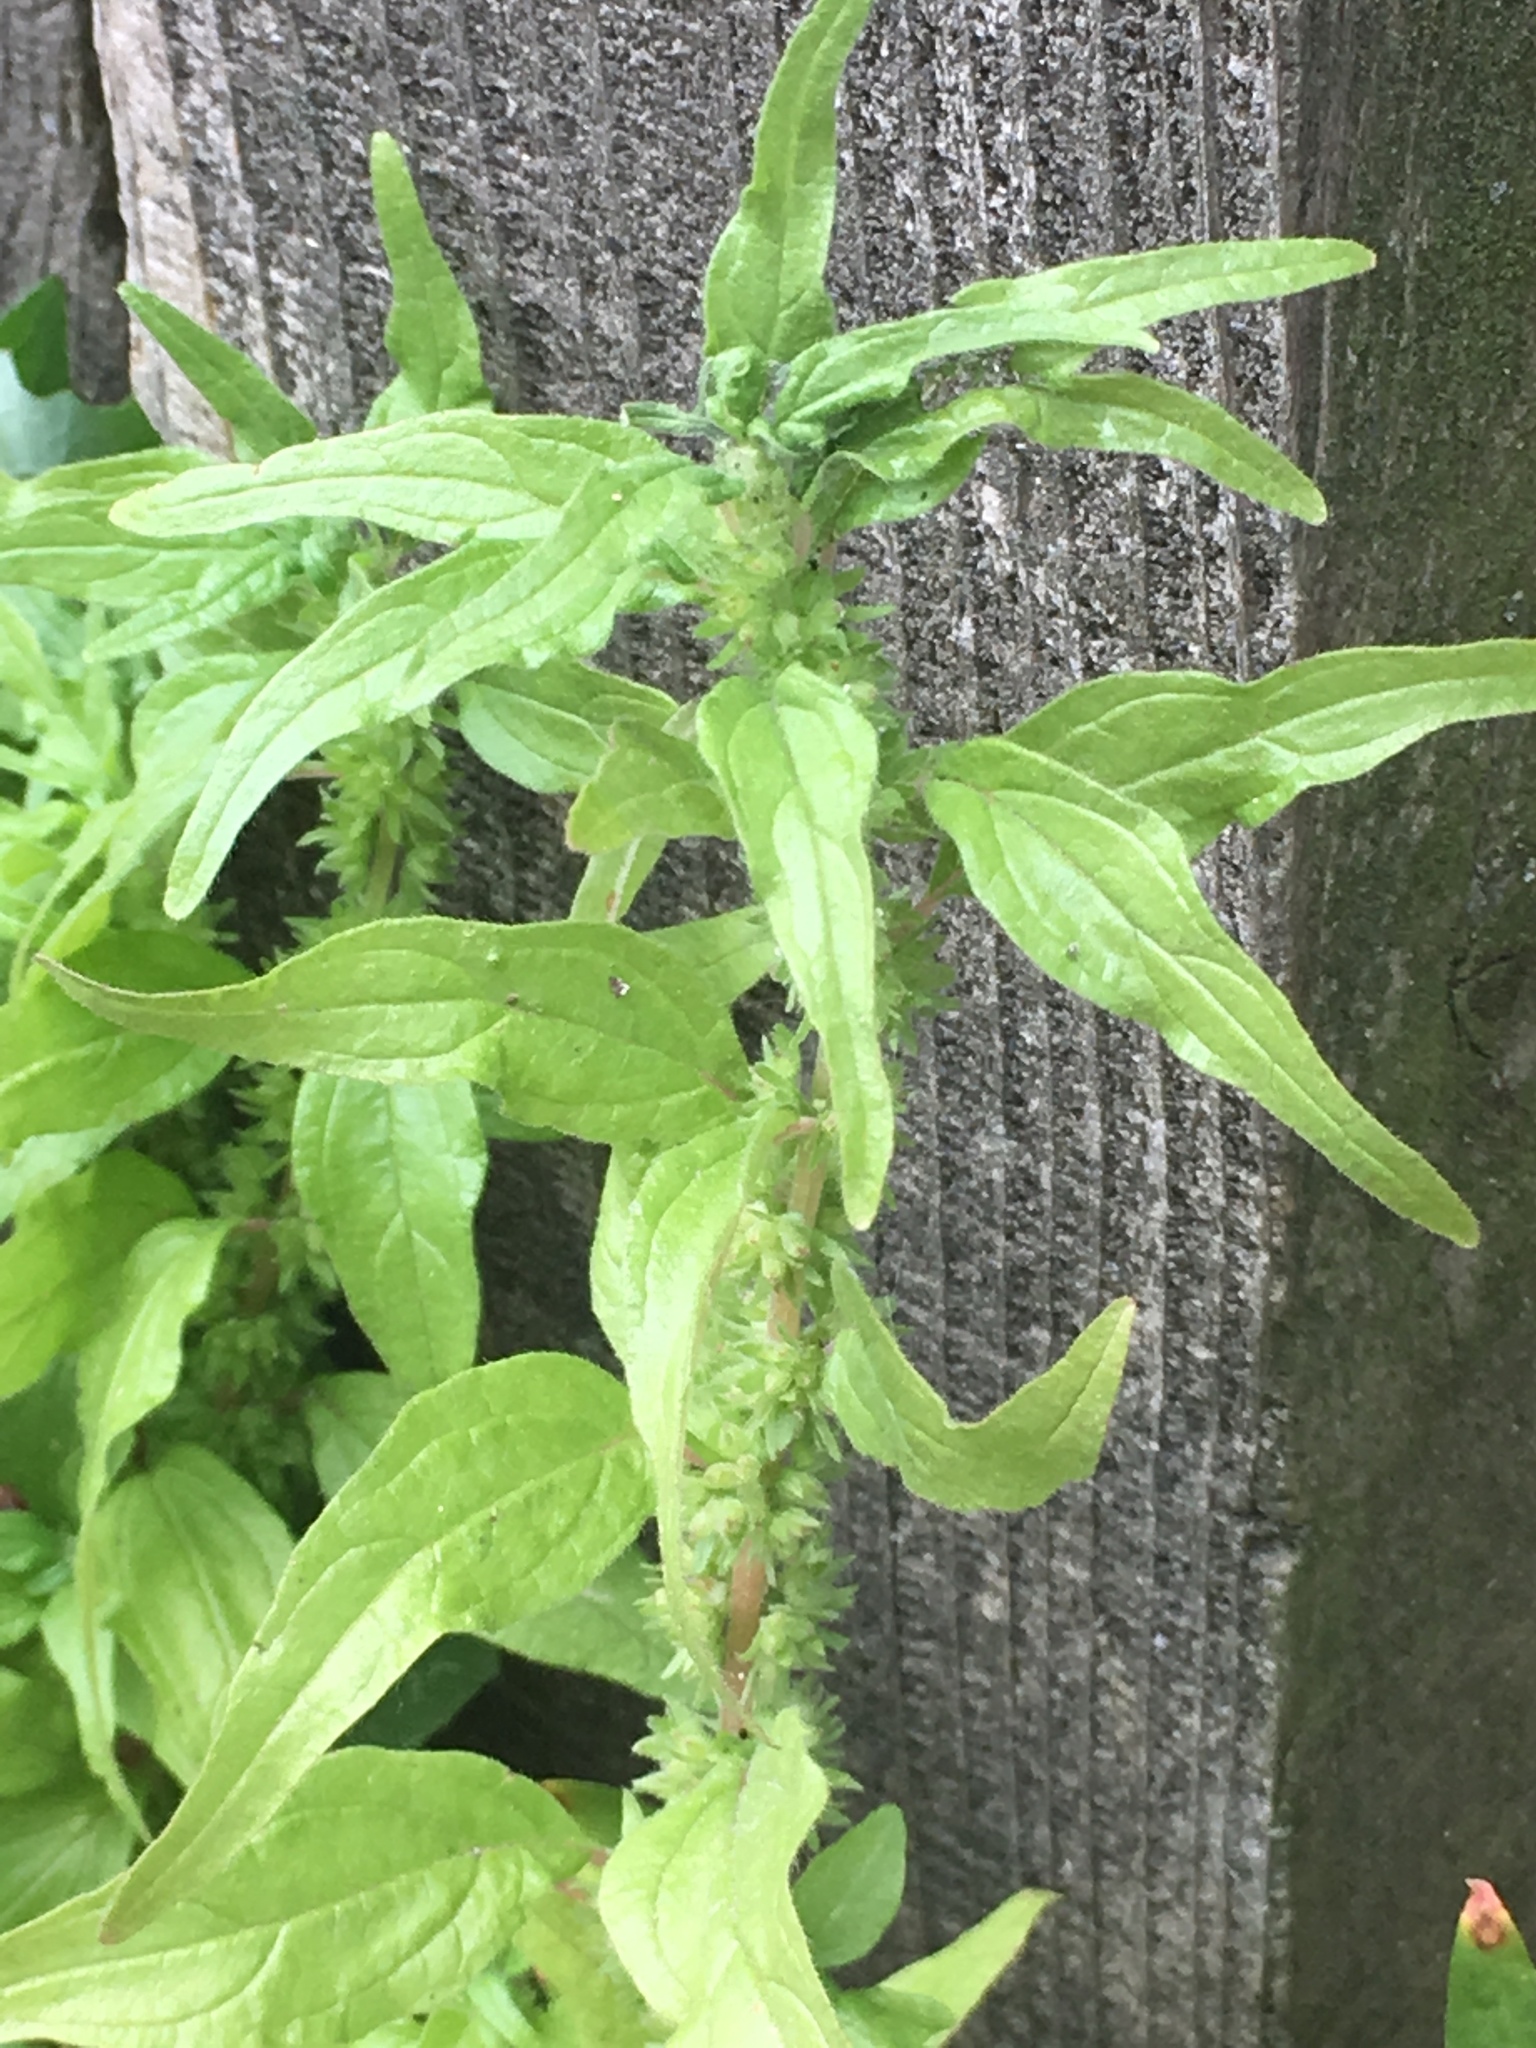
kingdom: Plantae
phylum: Tracheophyta
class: Magnoliopsida
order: Rosales
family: Urticaceae
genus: Parietaria
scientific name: Parietaria pensylvanica
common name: Pennsylvania pellitory
